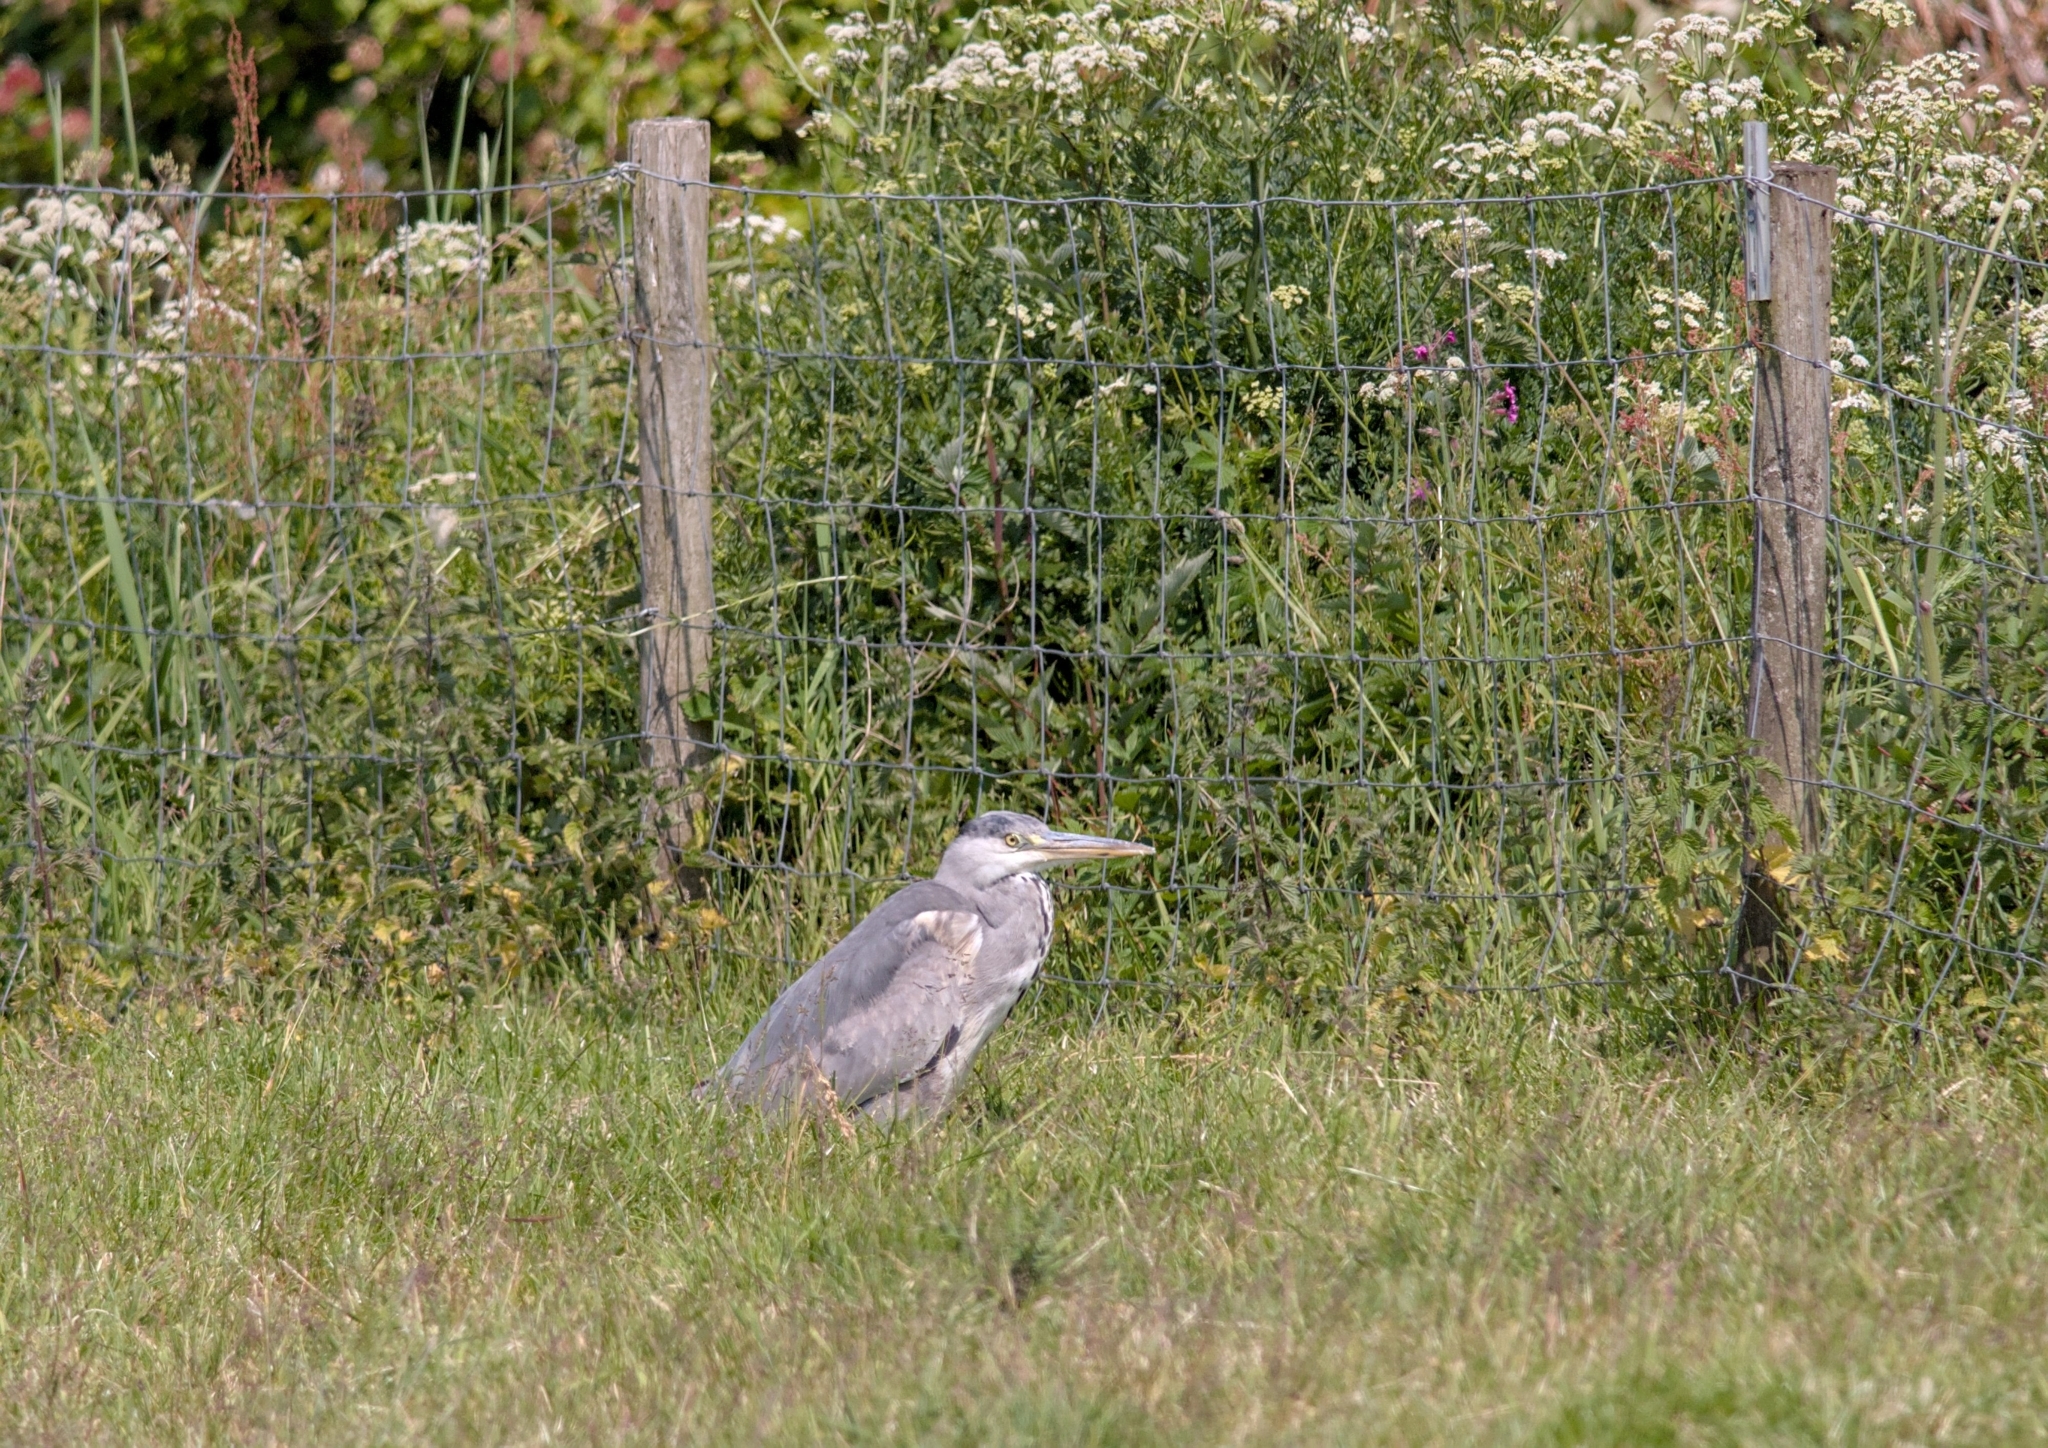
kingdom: Animalia
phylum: Chordata
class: Aves
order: Pelecaniformes
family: Ardeidae
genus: Ardea
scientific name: Ardea cinerea
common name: Grey heron
